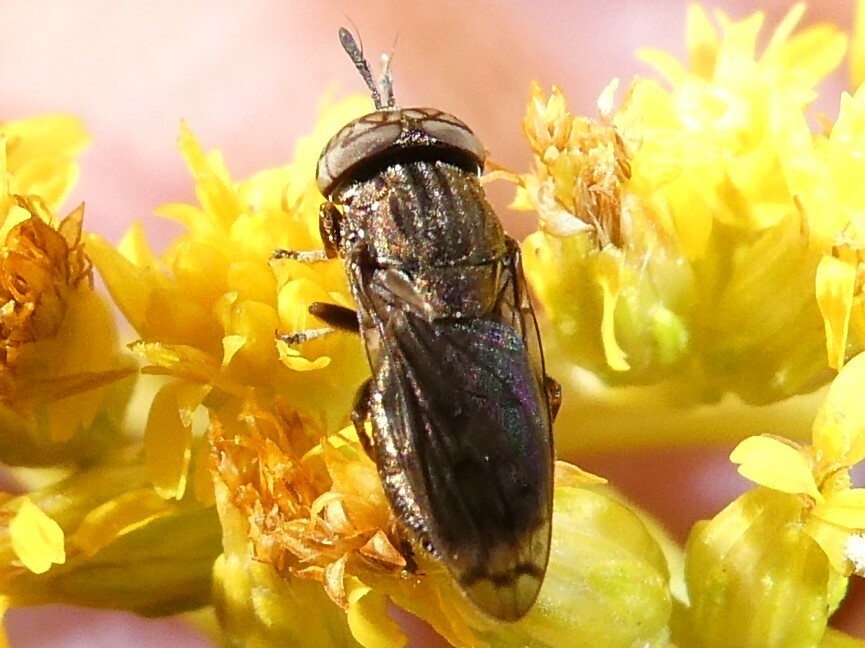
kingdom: Animalia
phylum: Arthropoda
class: Insecta
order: Diptera
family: Syrphidae
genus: Orthonevra
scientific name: Orthonevra nitida
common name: Wavy mucksucker
